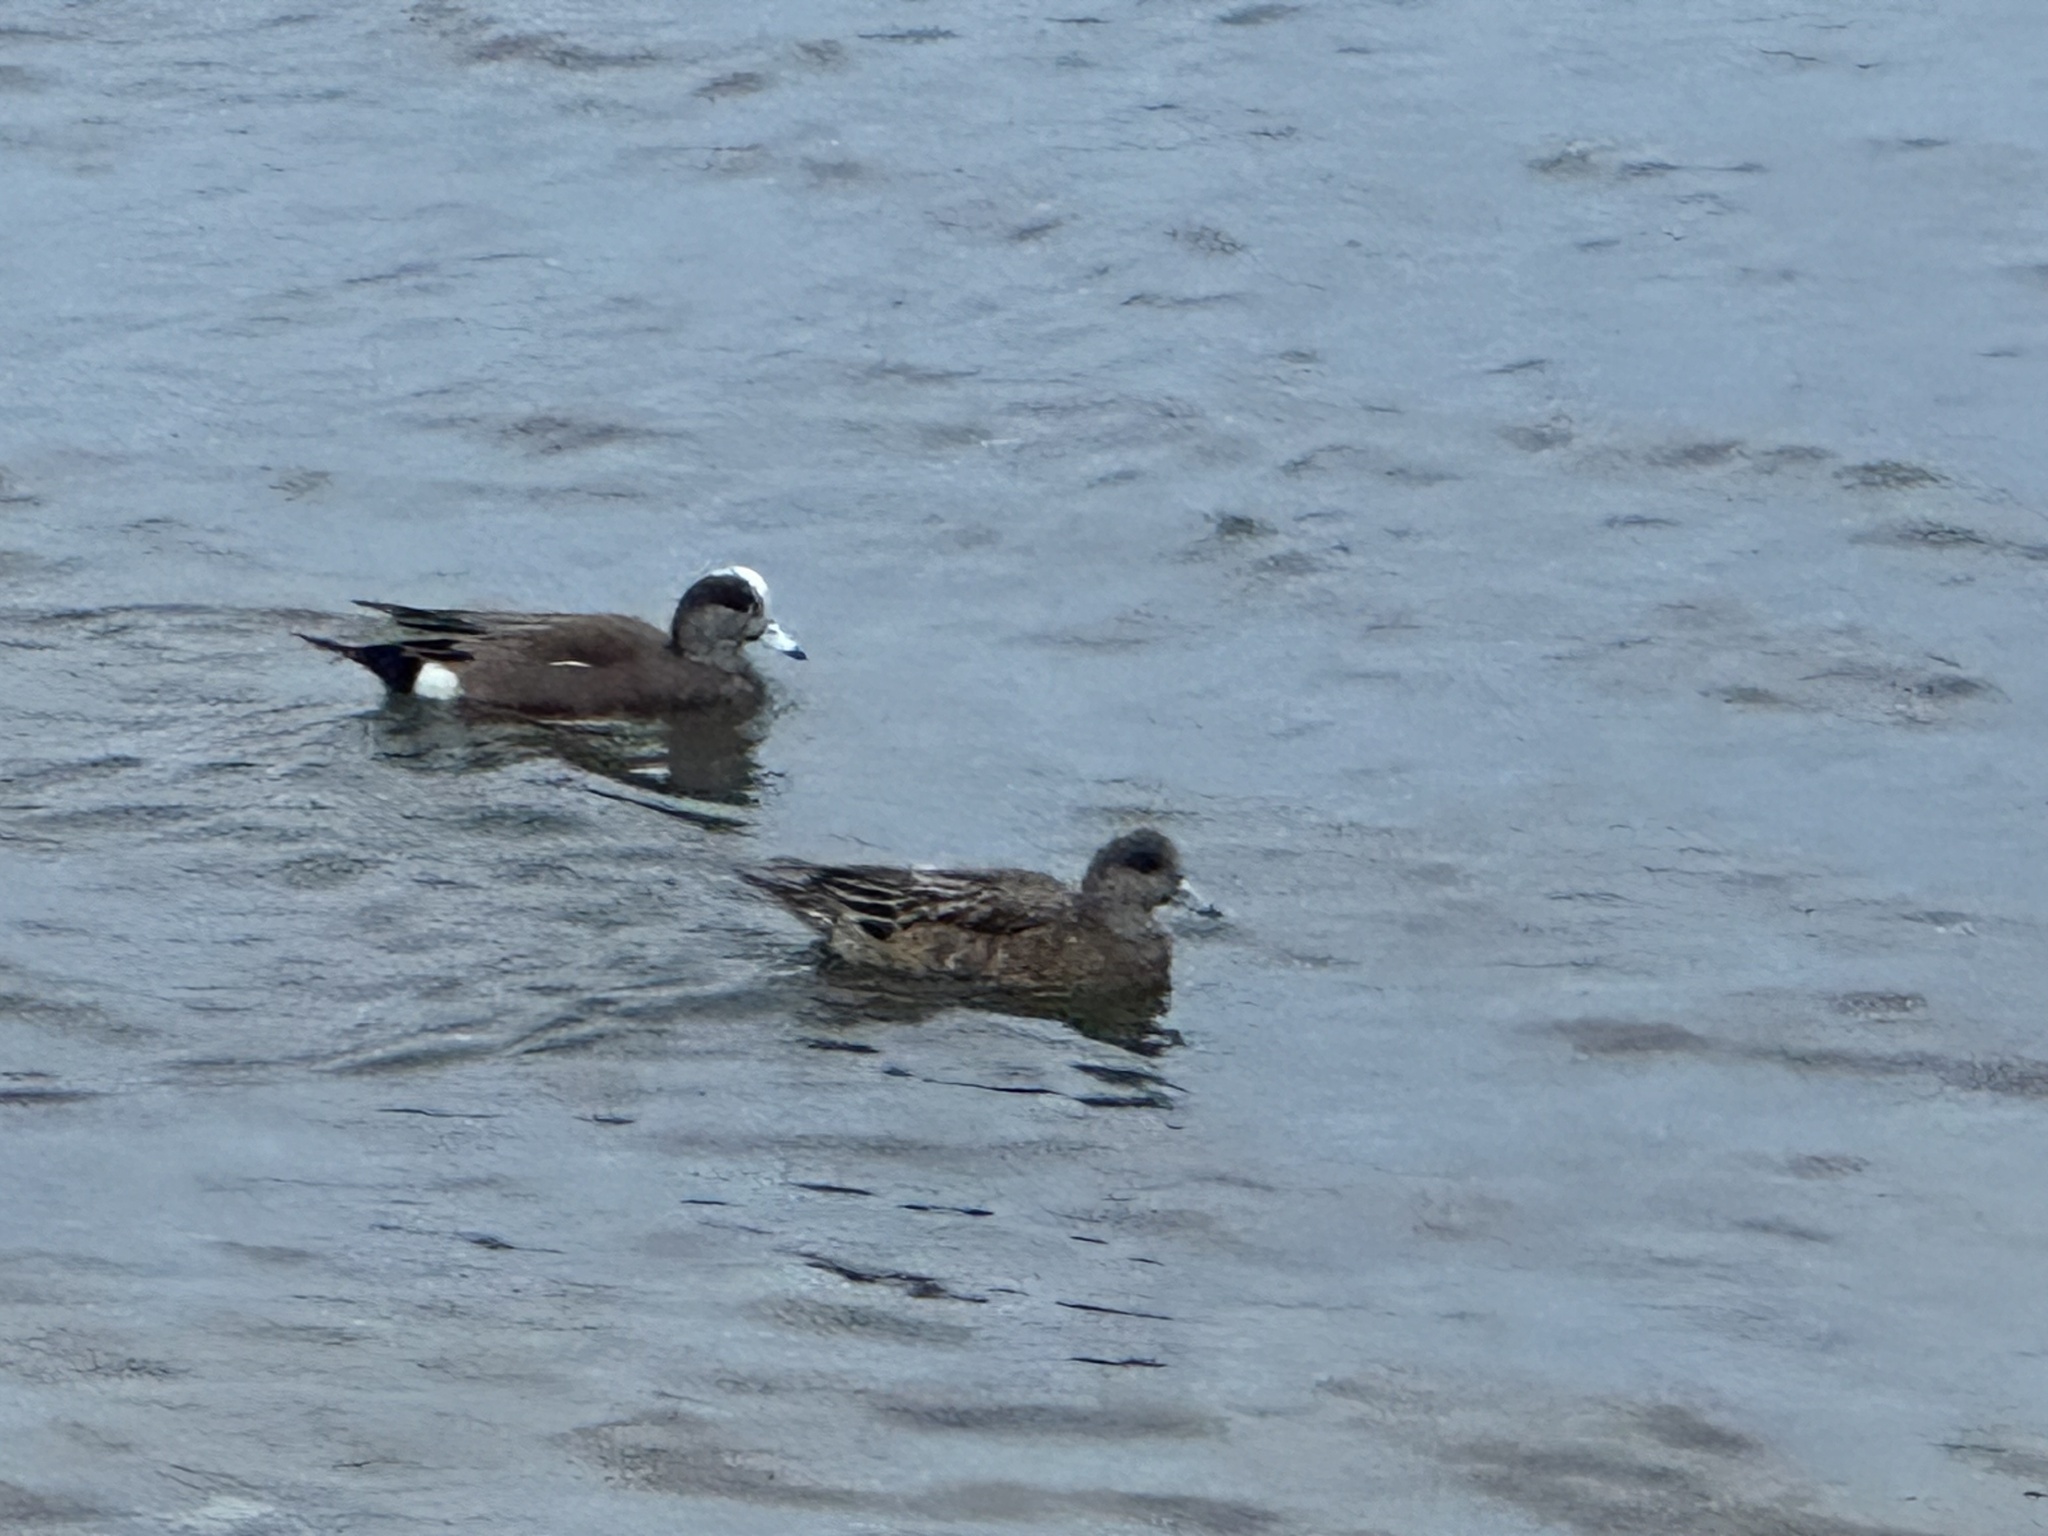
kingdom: Animalia
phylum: Chordata
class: Aves
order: Anseriformes
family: Anatidae
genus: Mareca
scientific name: Mareca americana
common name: American wigeon
